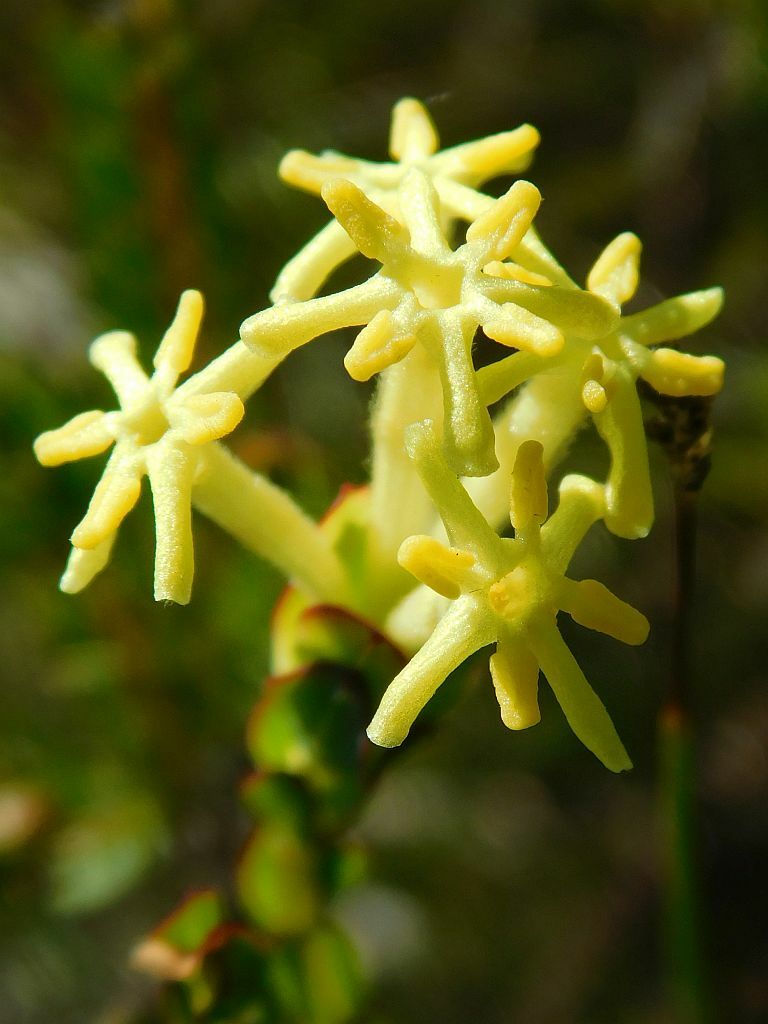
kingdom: Plantae
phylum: Tracheophyta
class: Magnoliopsida
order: Malvales
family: Thymelaeaceae
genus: Gnidia
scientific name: Gnidia oppositifolia
